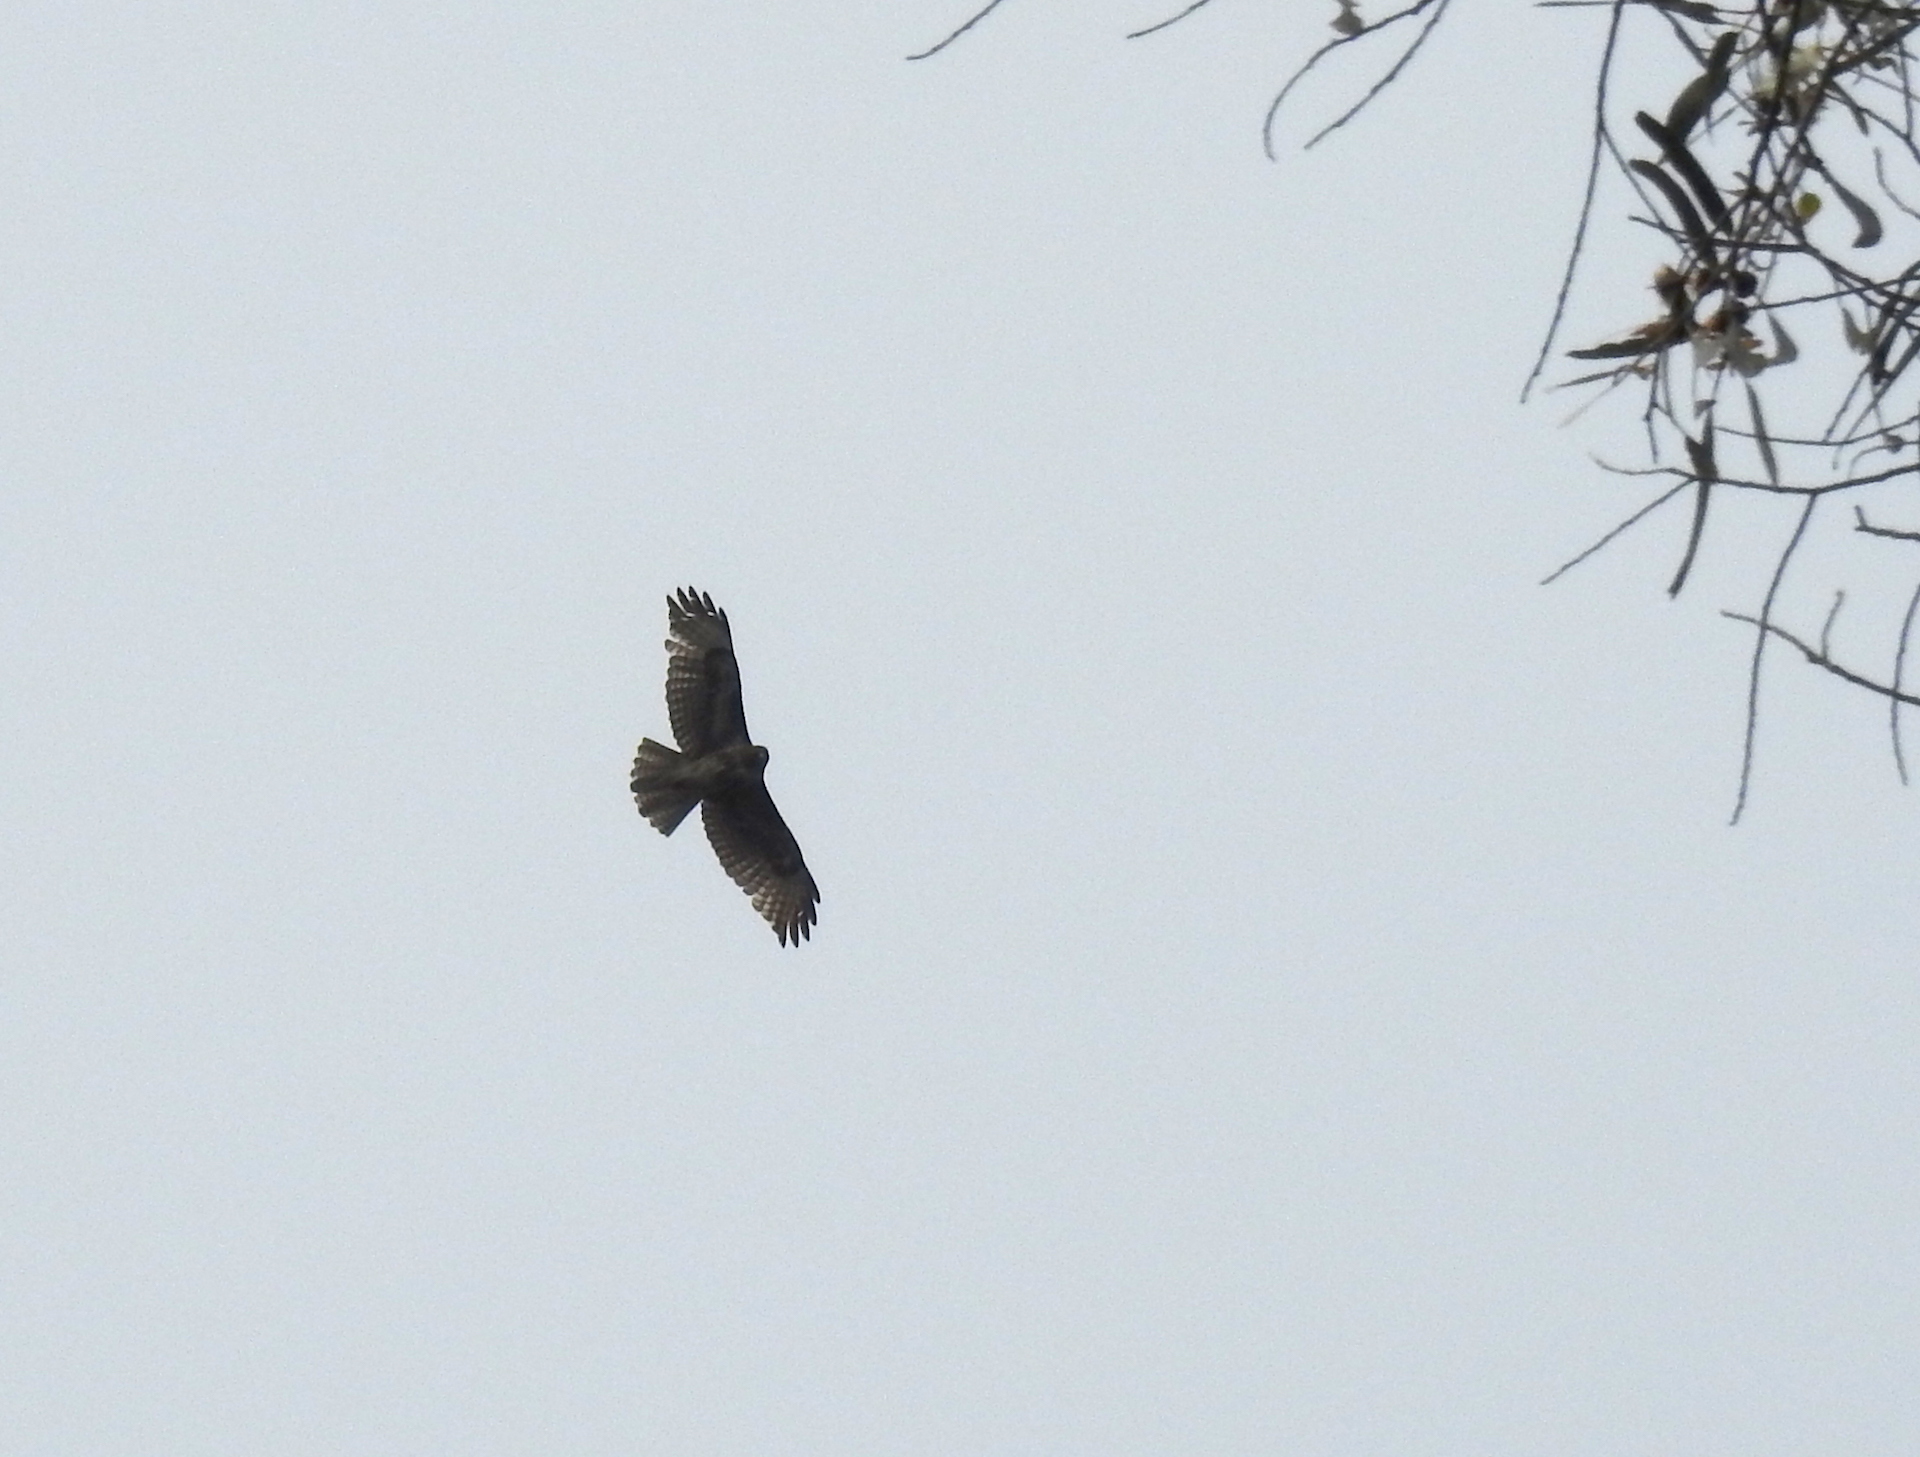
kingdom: Animalia
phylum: Chordata
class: Aves
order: Accipitriformes
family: Accipitridae
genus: Buteo
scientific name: Buteo jamaicensis
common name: Red-tailed hawk
